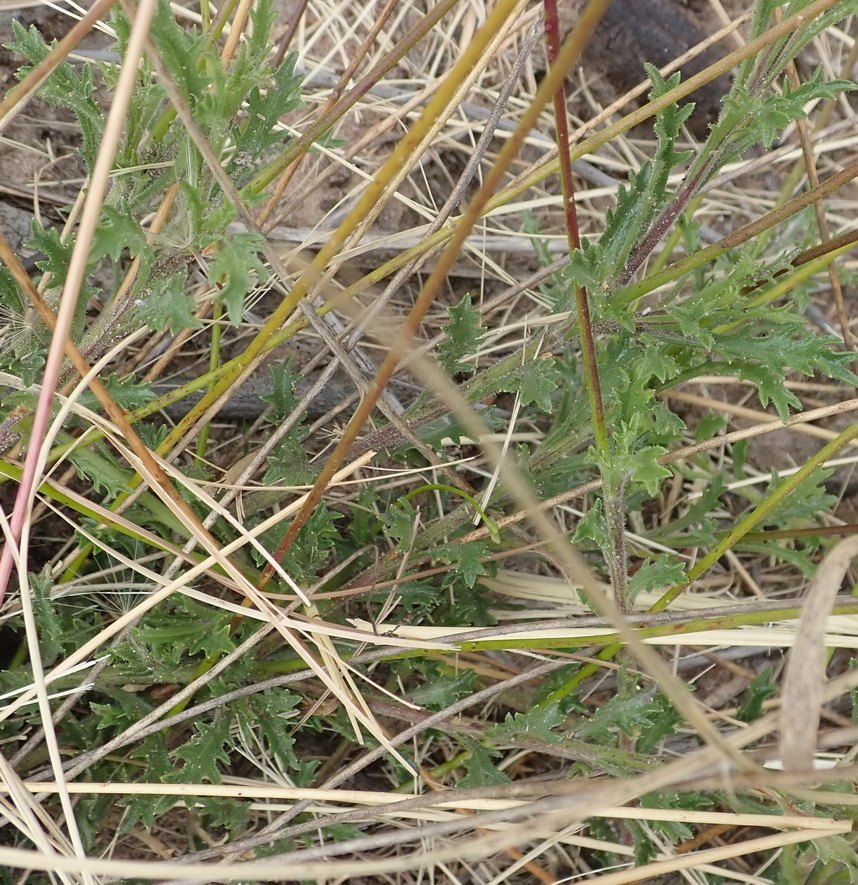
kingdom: Plantae
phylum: Tracheophyta
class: Magnoliopsida
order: Asterales
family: Campanulaceae
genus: Lobelia
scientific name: Lobelia tomentosa
